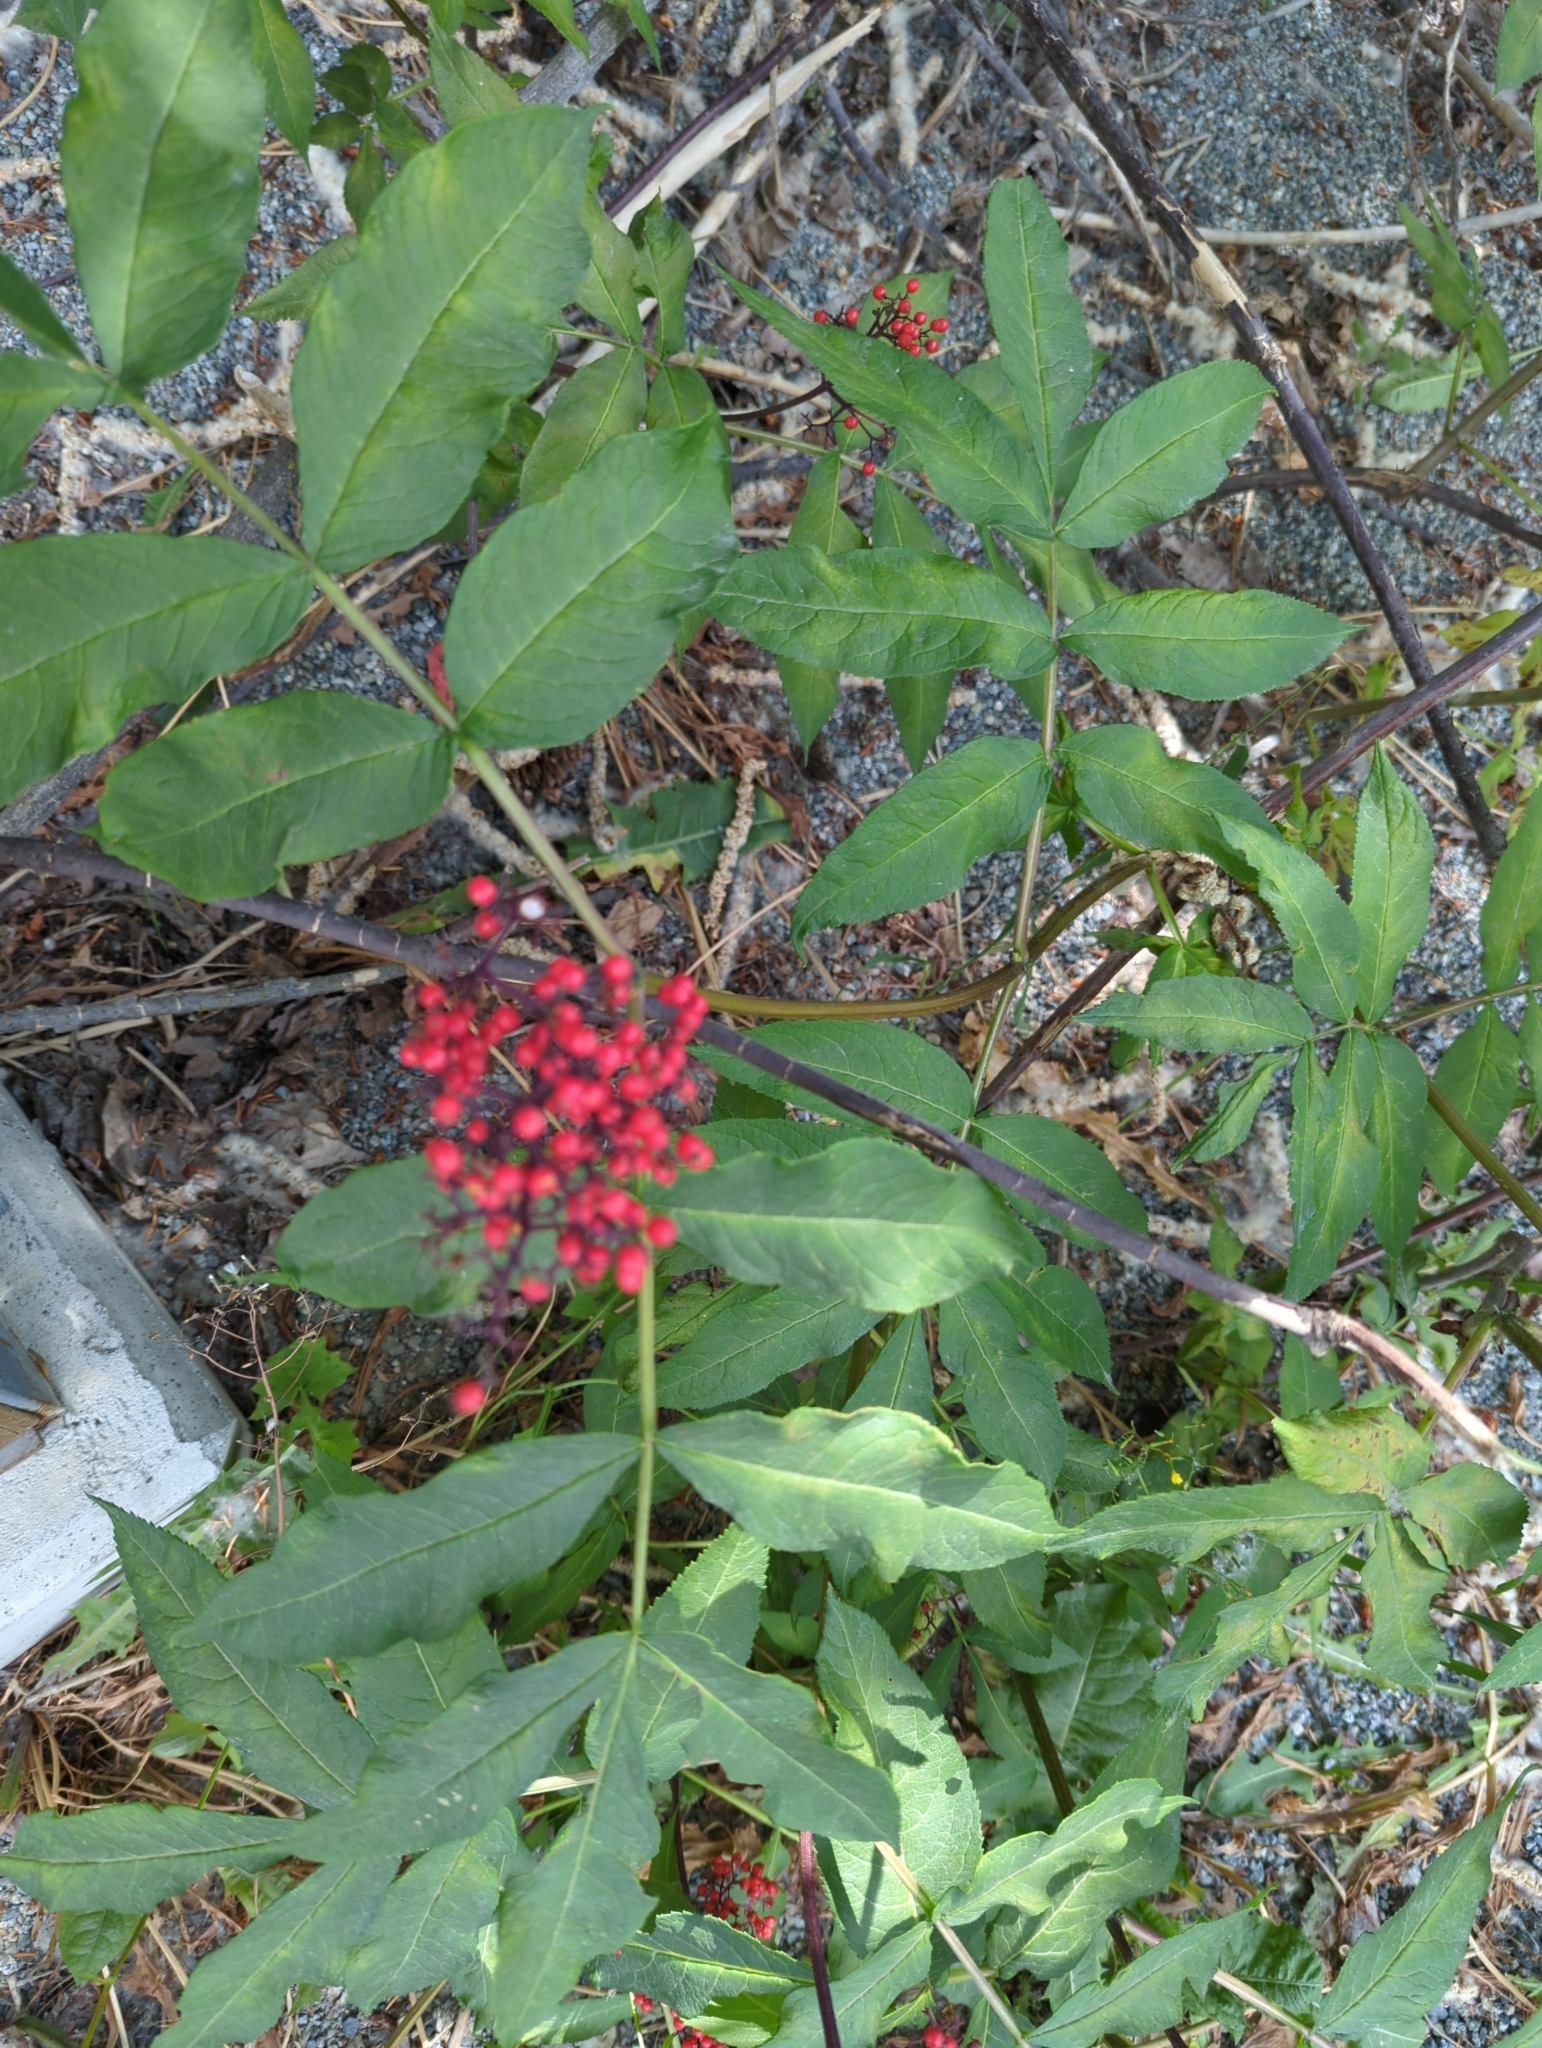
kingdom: Plantae
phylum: Tracheophyta
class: Magnoliopsida
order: Dipsacales
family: Viburnaceae
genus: Sambucus
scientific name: Sambucus racemosa
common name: Red-berried elder
